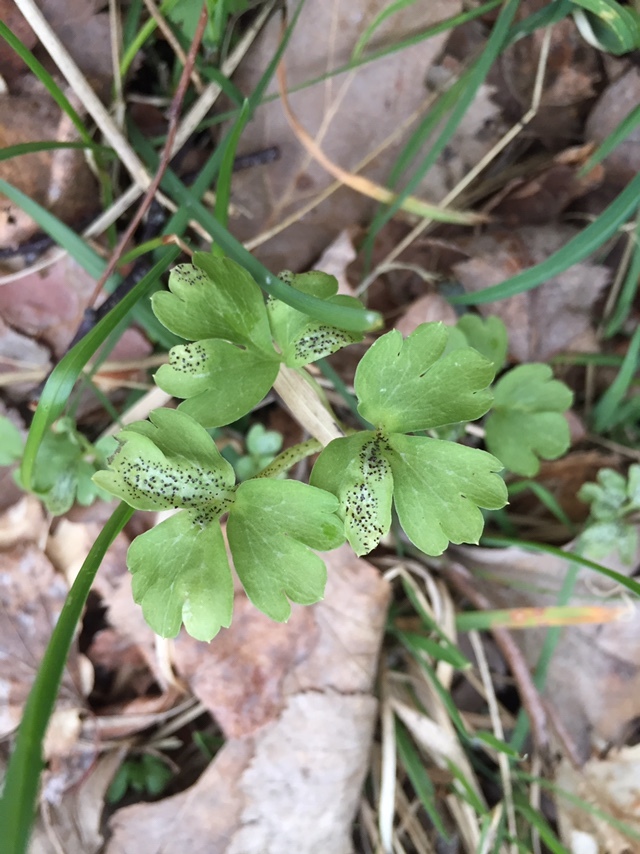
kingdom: Fungi
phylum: Basidiomycota
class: Pucciniomycetes
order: Pucciniales
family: Pucciniaceae
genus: Puccinia
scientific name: Puccinia adoxae
